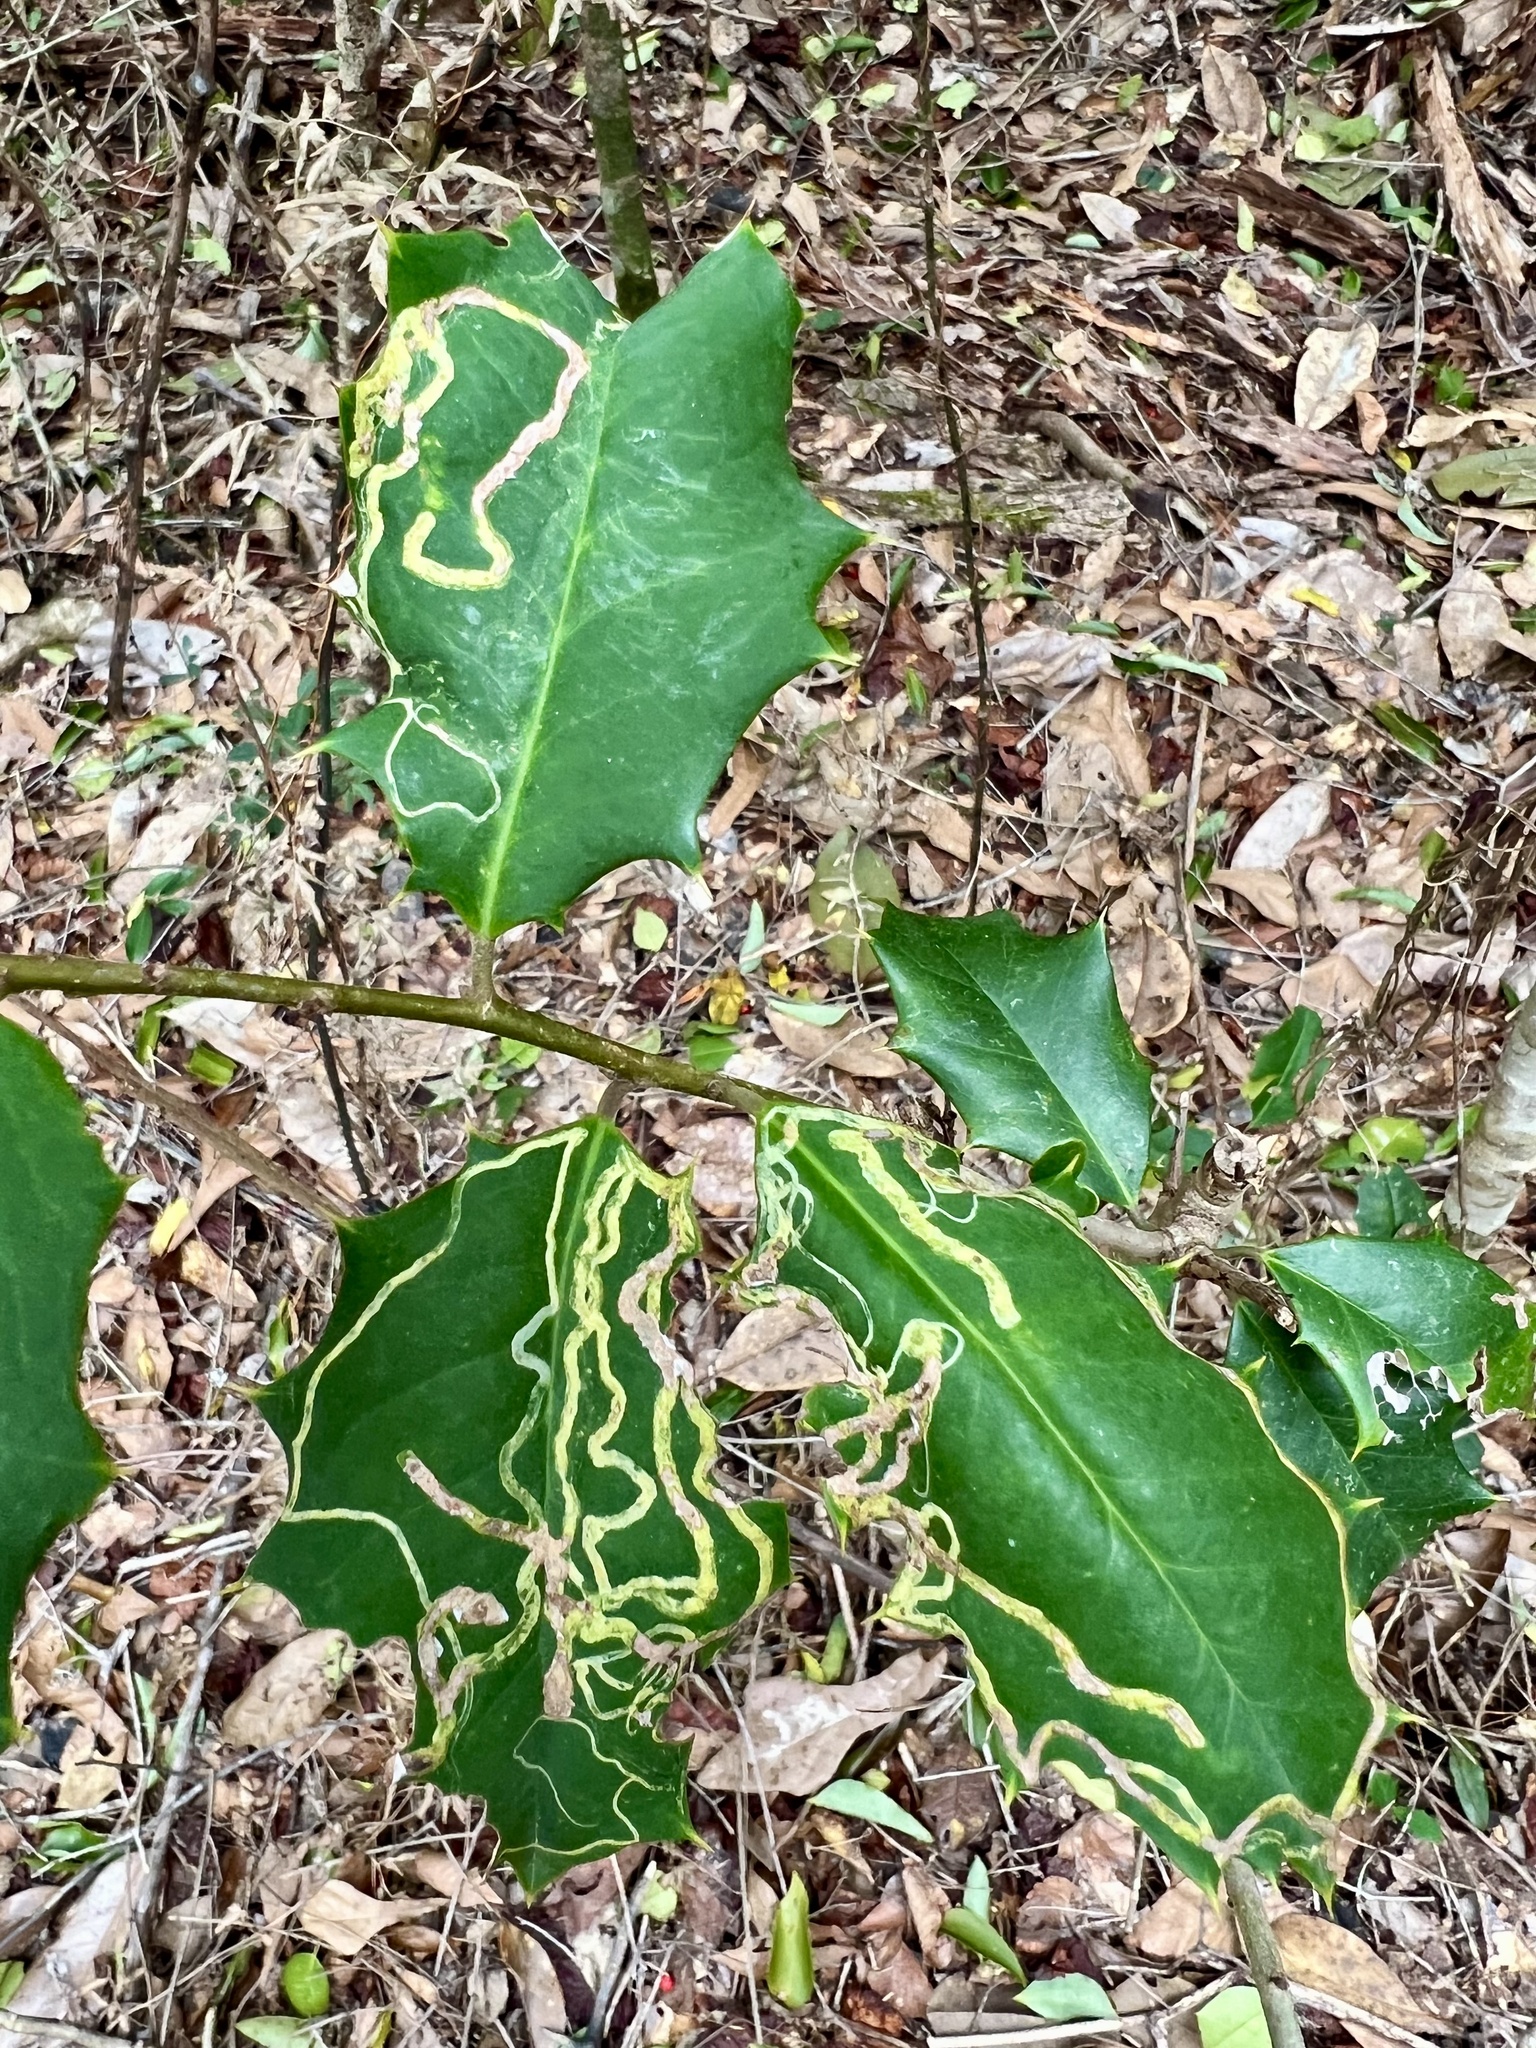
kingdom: Animalia
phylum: Arthropoda
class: Insecta
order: Diptera
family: Agromyzidae
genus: Phytomyza
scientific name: Phytomyza opacae
